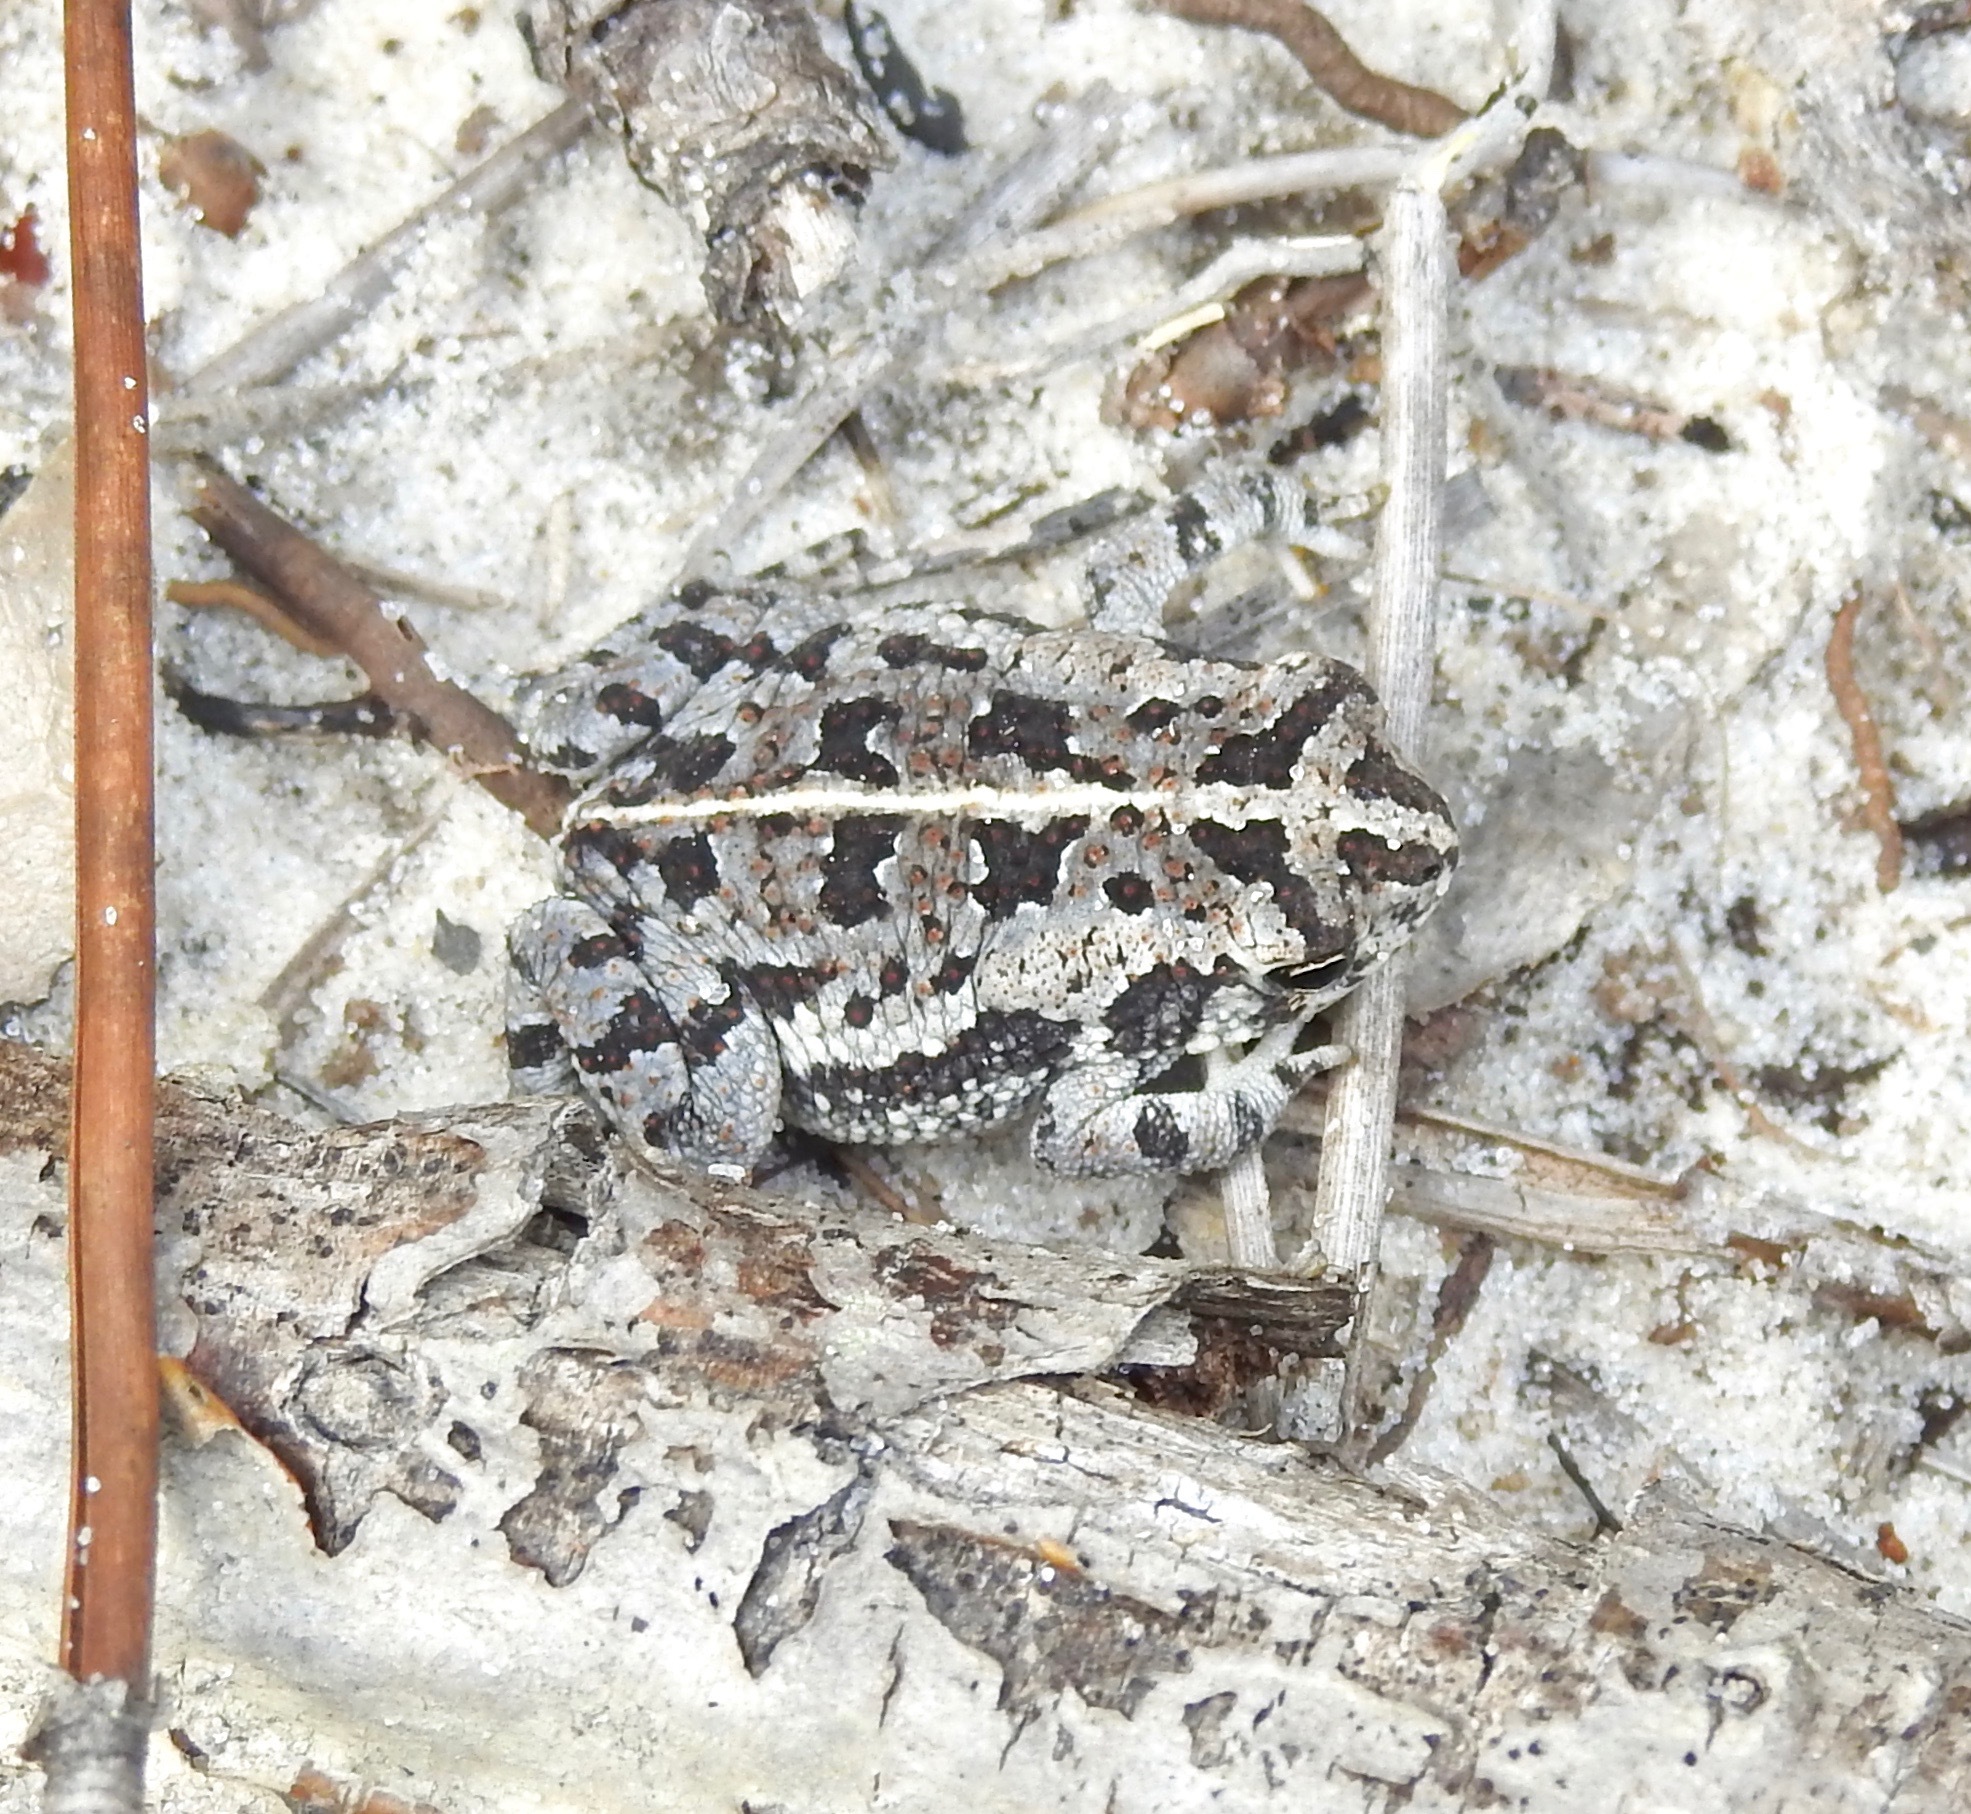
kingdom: Animalia
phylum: Chordata
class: Amphibia
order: Anura
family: Bufonidae
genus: Anaxyrus
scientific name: Anaxyrus quercicus
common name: Oak toad
